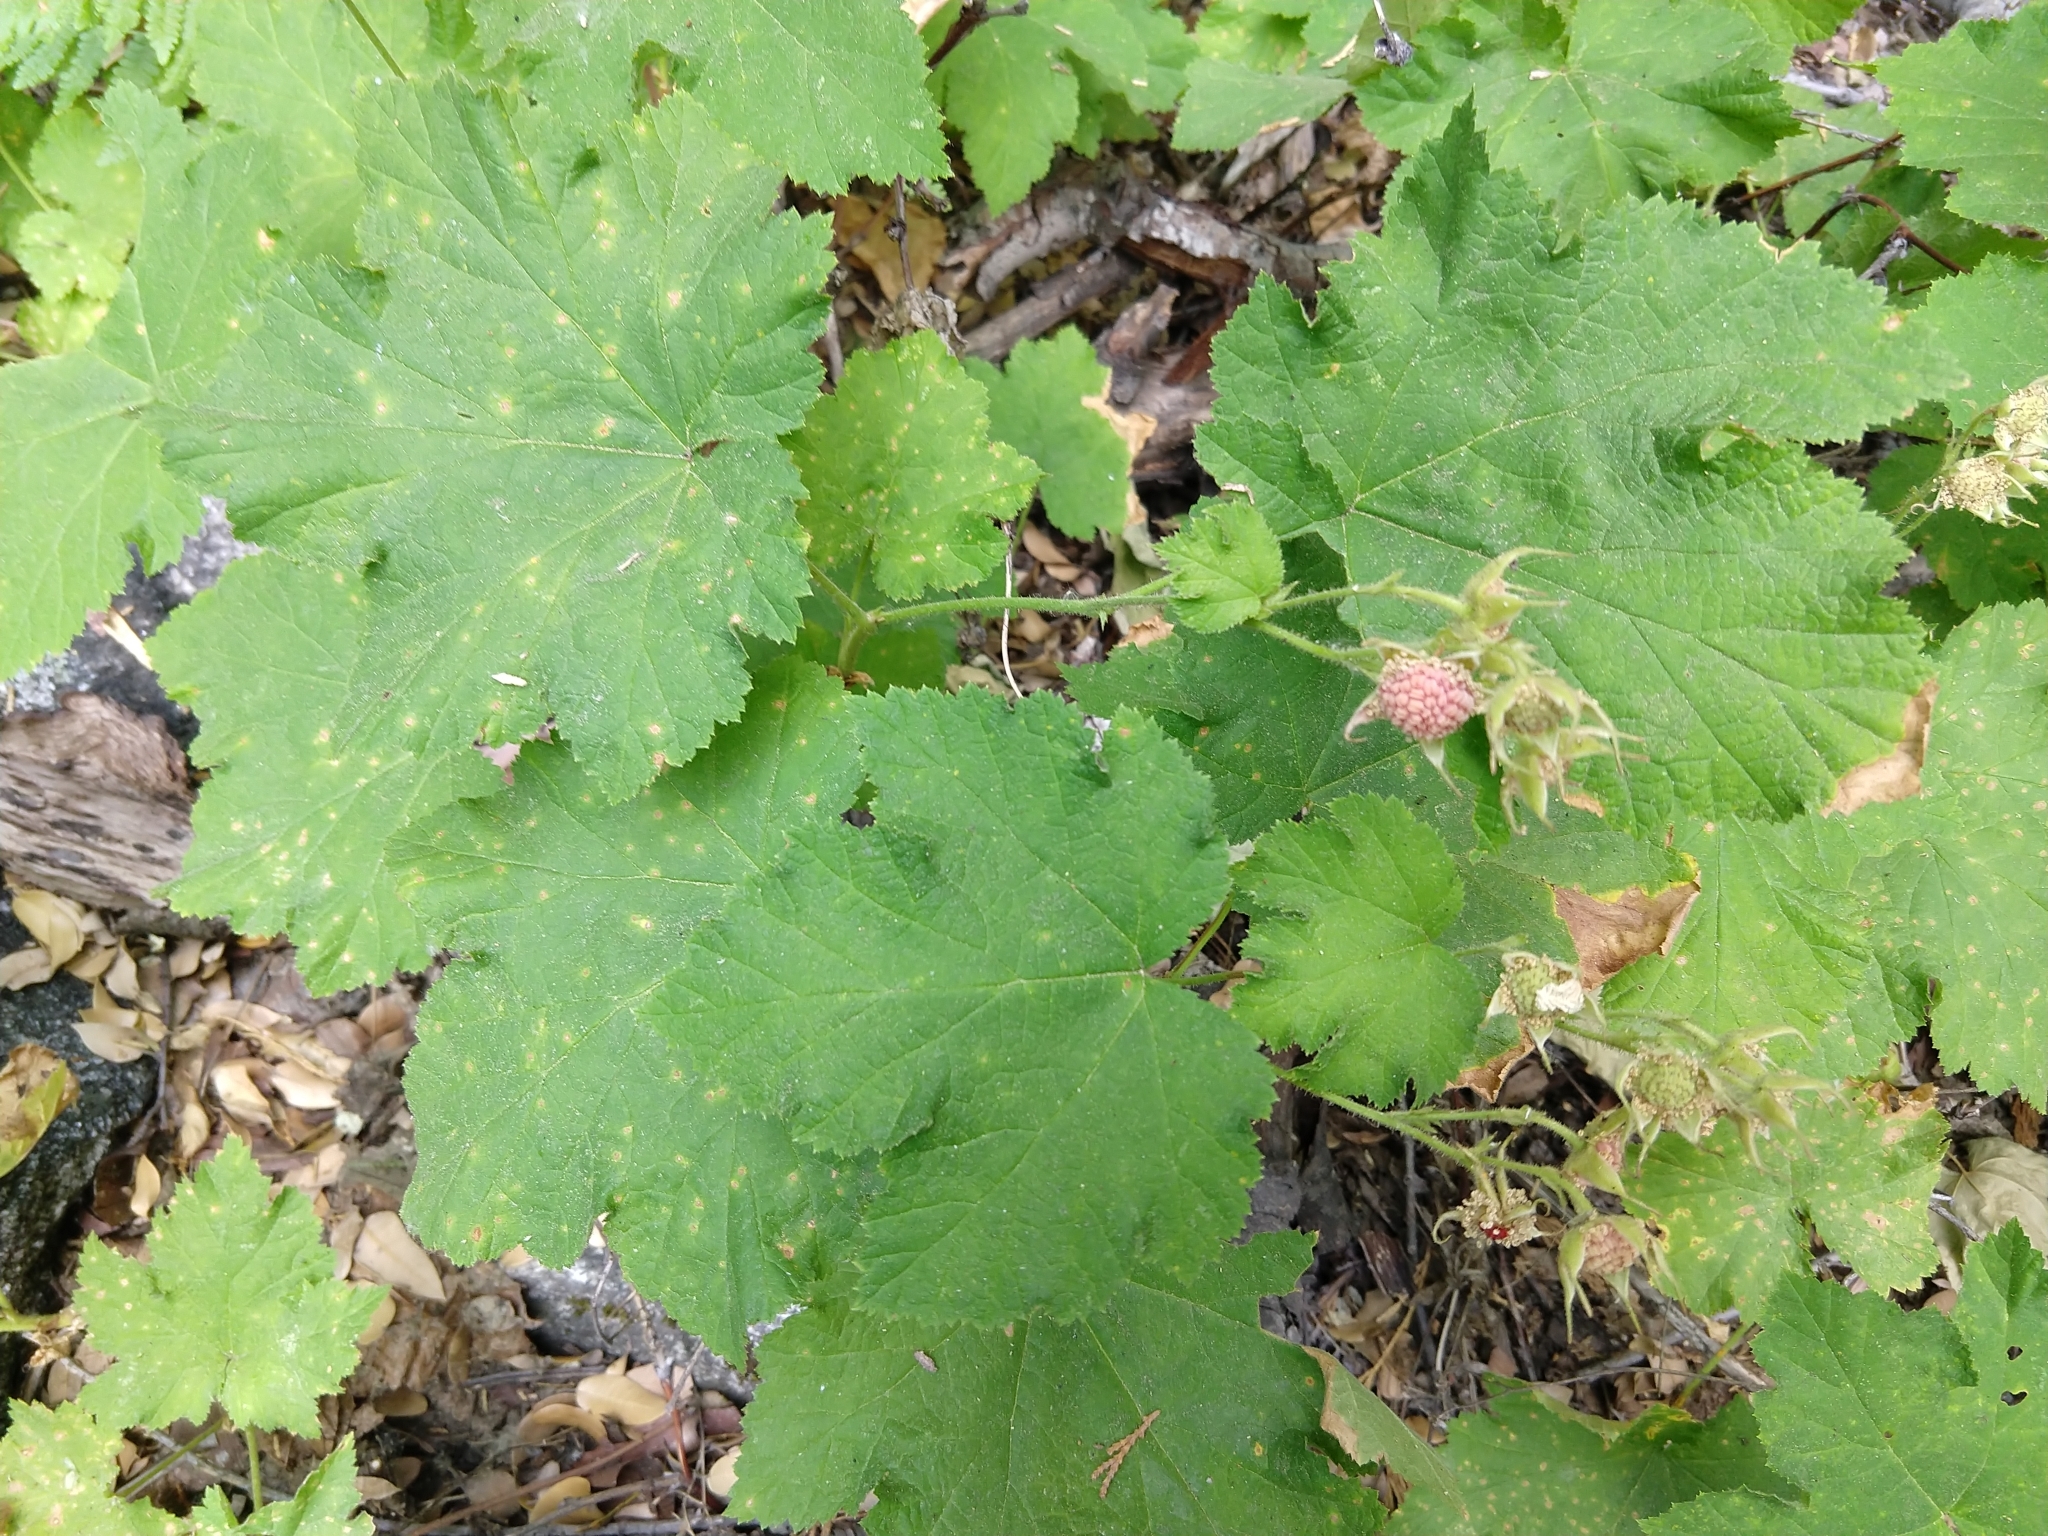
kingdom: Plantae
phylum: Tracheophyta
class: Magnoliopsida
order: Rosales
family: Rosaceae
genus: Rubus
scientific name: Rubus parviflorus
